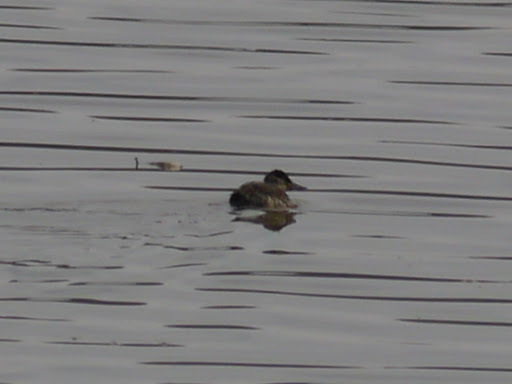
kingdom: Animalia
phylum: Chordata
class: Aves
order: Anseriformes
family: Anatidae
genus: Oxyura
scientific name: Oxyura jamaicensis
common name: Ruddy duck
